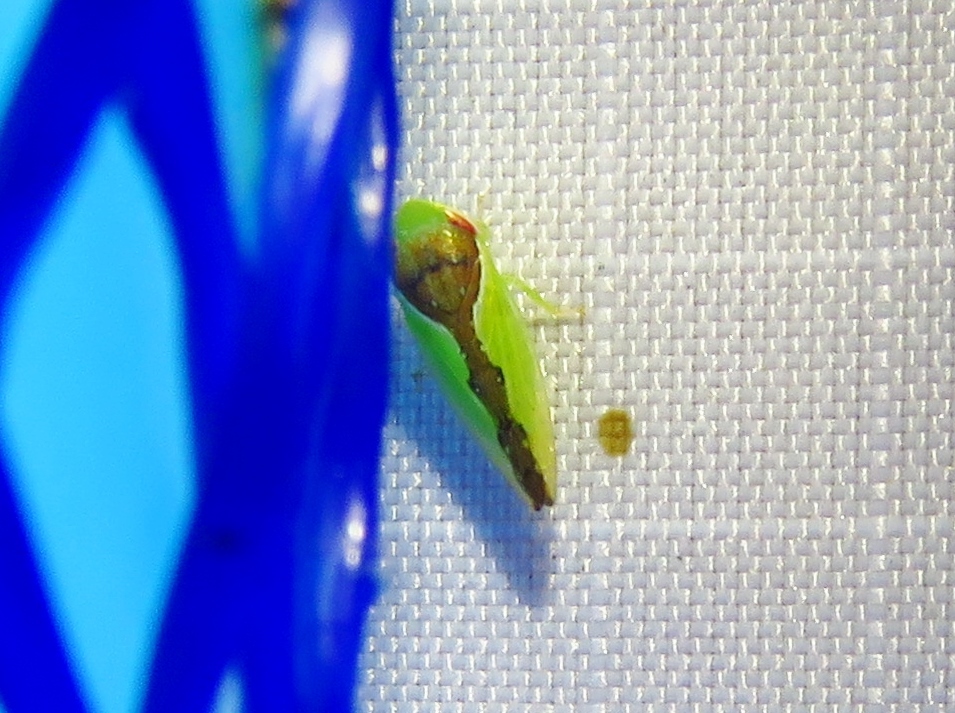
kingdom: Animalia
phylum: Arthropoda
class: Insecta
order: Hemiptera
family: Cicadellidae
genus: Omansobara ing
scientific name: Omansobara ing Omansobara palliolata
